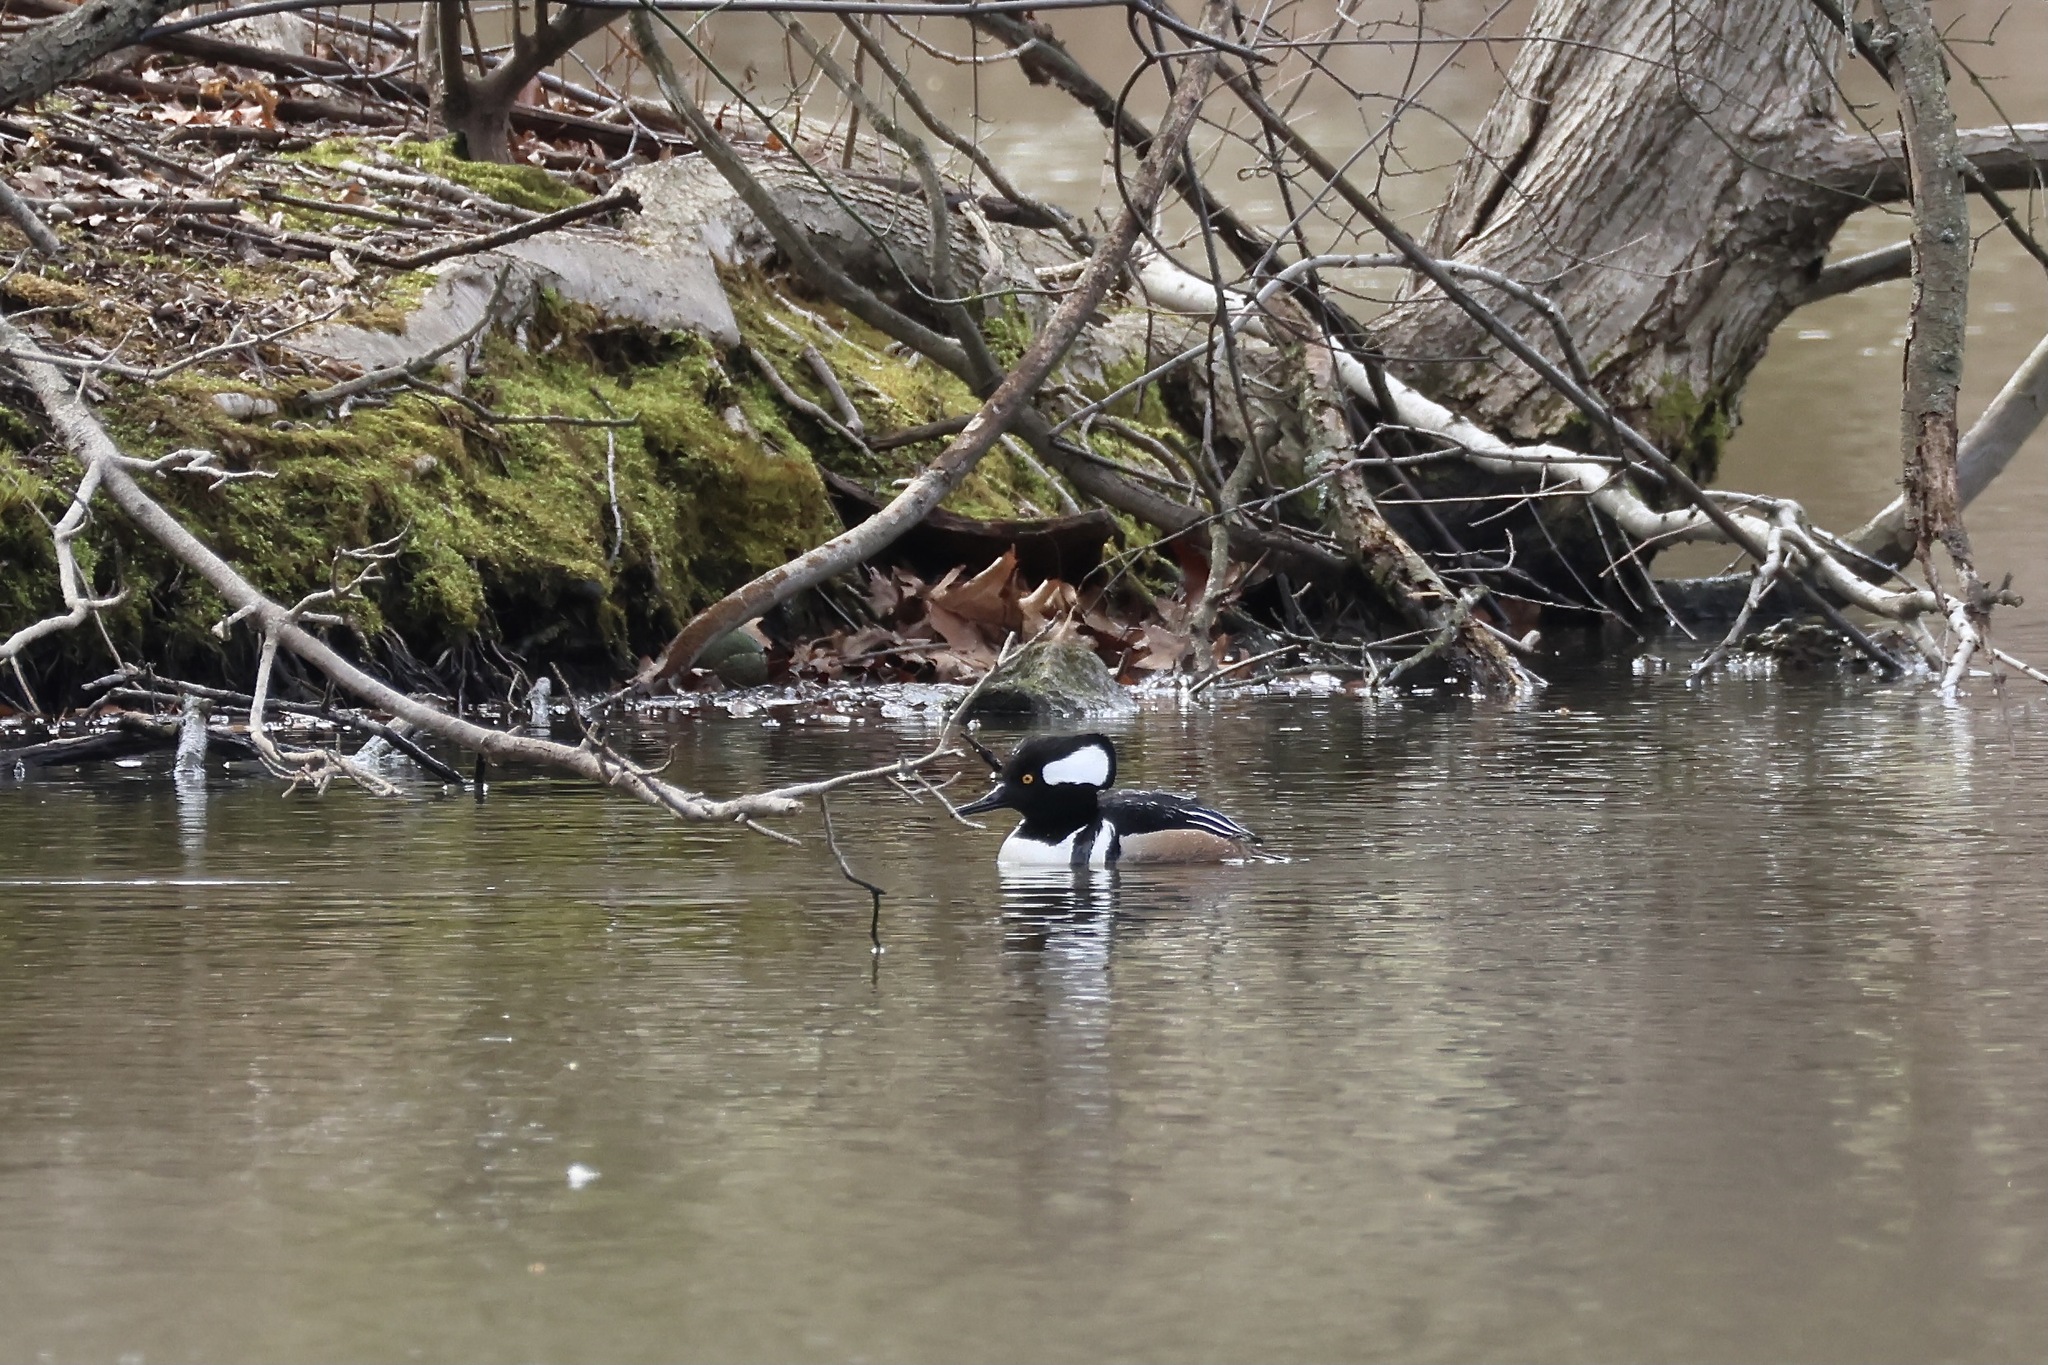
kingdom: Animalia
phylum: Chordata
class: Aves
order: Anseriformes
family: Anatidae
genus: Lophodytes
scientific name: Lophodytes cucullatus
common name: Hooded merganser
